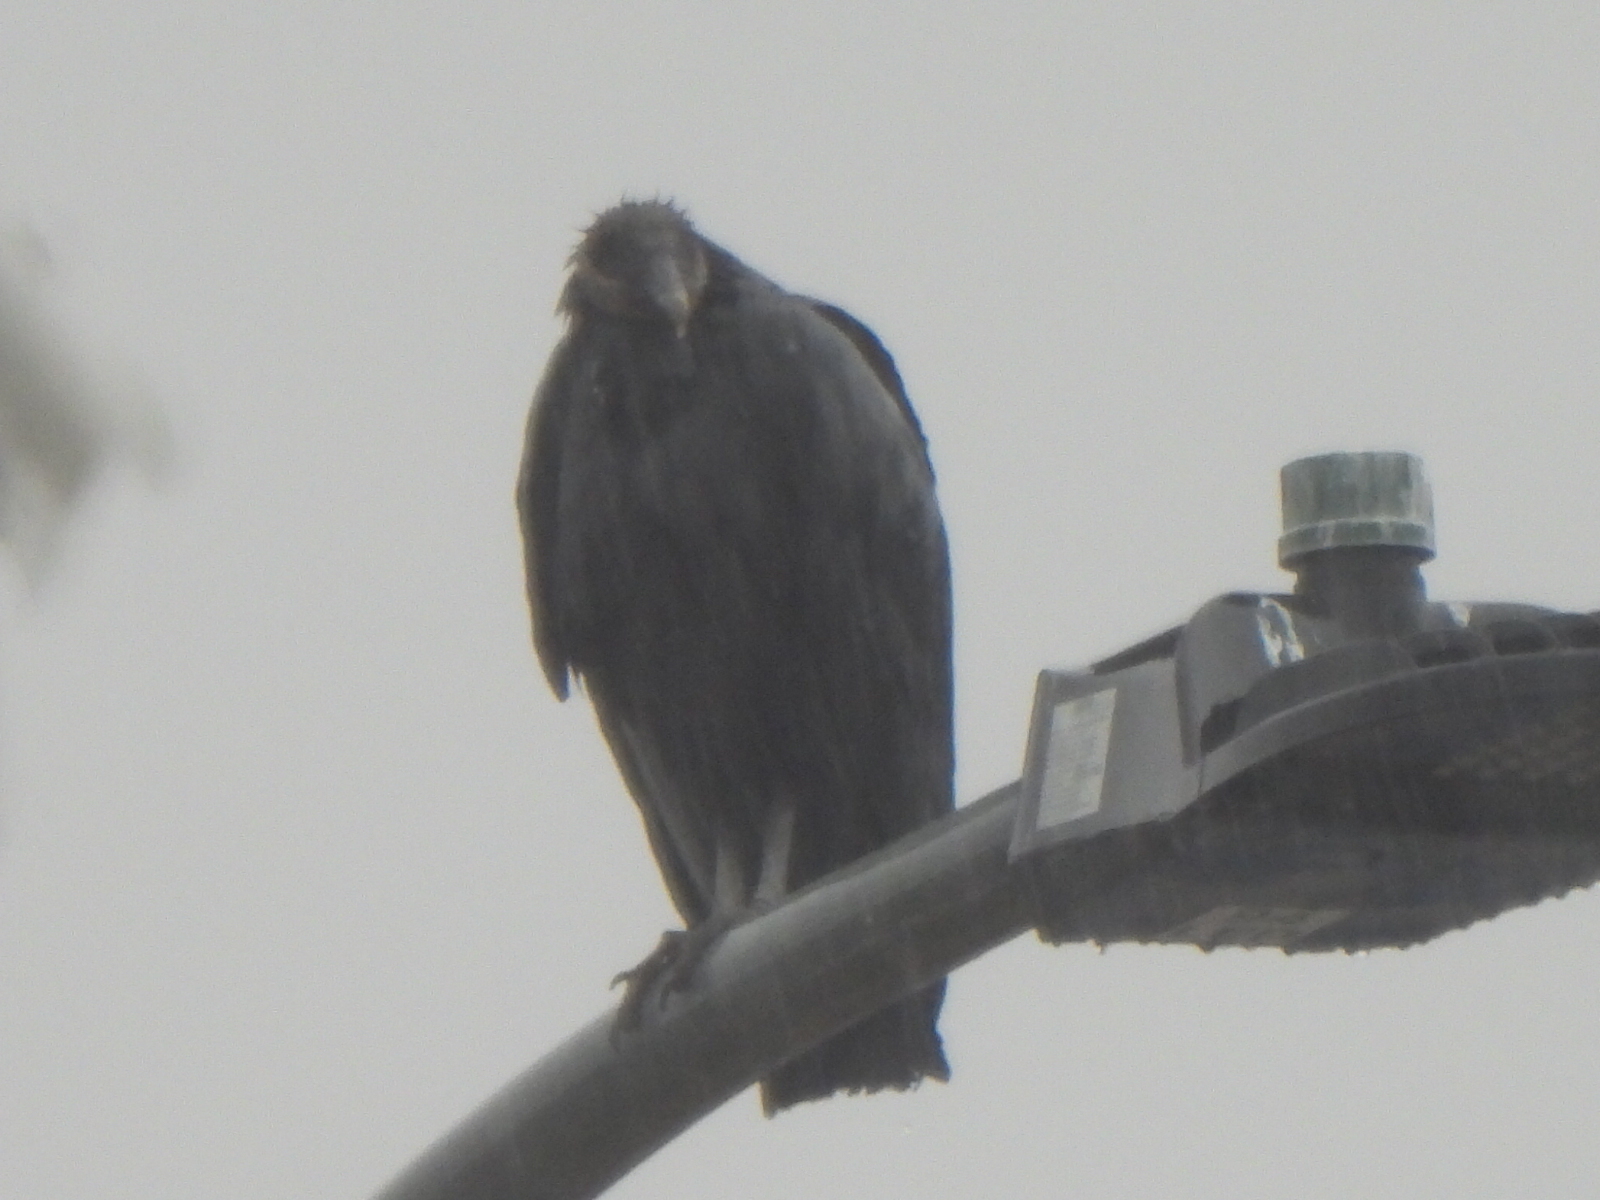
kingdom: Animalia
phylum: Chordata
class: Aves
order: Accipitriformes
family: Cathartidae
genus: Coragyps
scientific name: Coragyps atratus
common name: Black vulture
